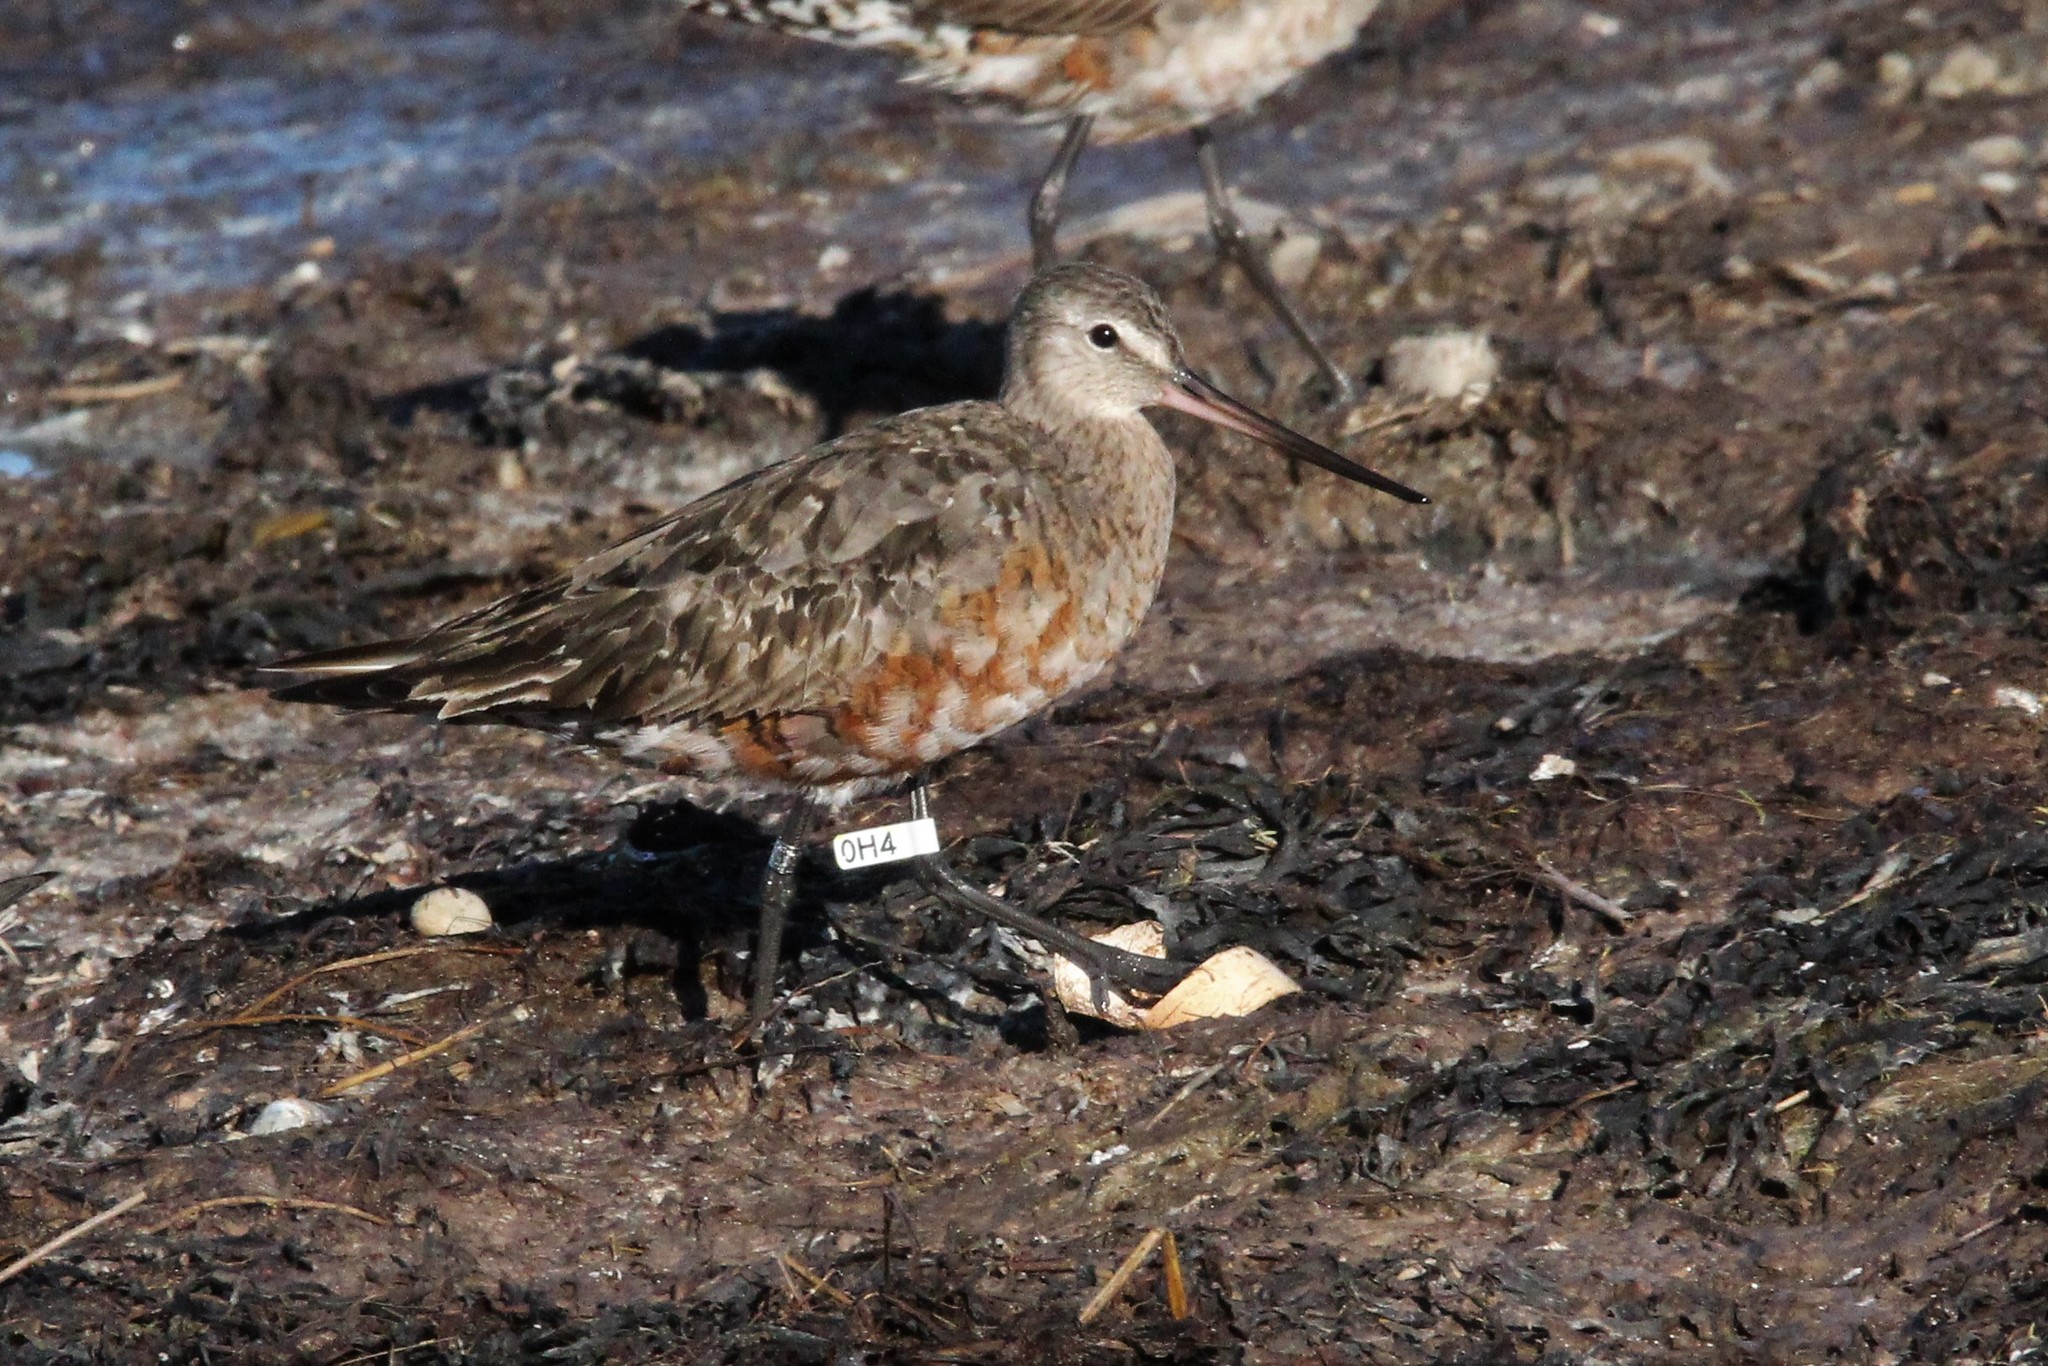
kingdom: Animalia
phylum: Chordata
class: Aves
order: Charadriiformes
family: Scolopacidae
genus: Limosa
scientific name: Limosa haemastica
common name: Hudsonian godwit
